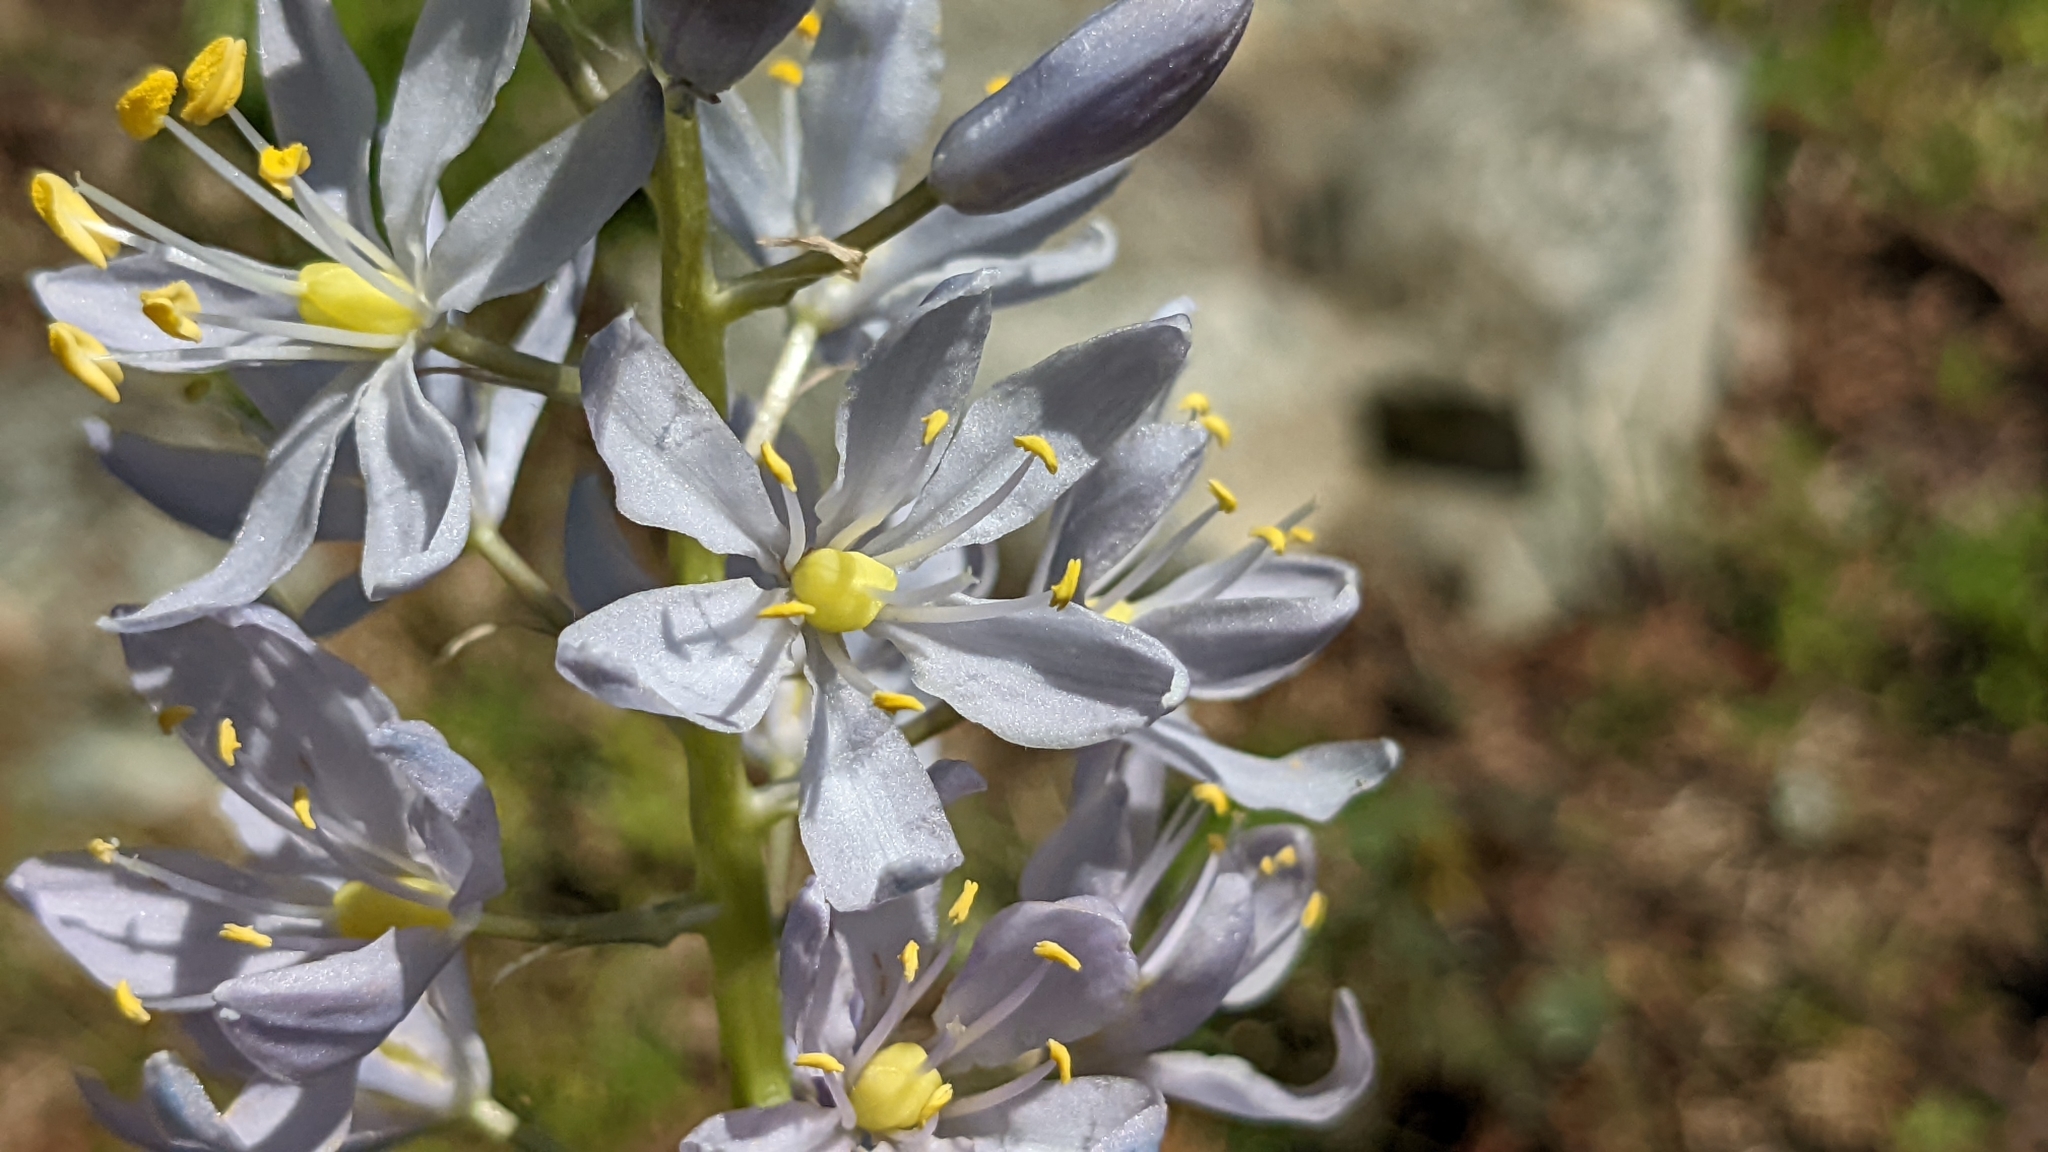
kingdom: Plantae
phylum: Tracheophyta
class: Liliopsida
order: Asparagales
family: Asparagaceae
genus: Camassia
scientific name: Camassia scilloides
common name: Wild hyacinth
